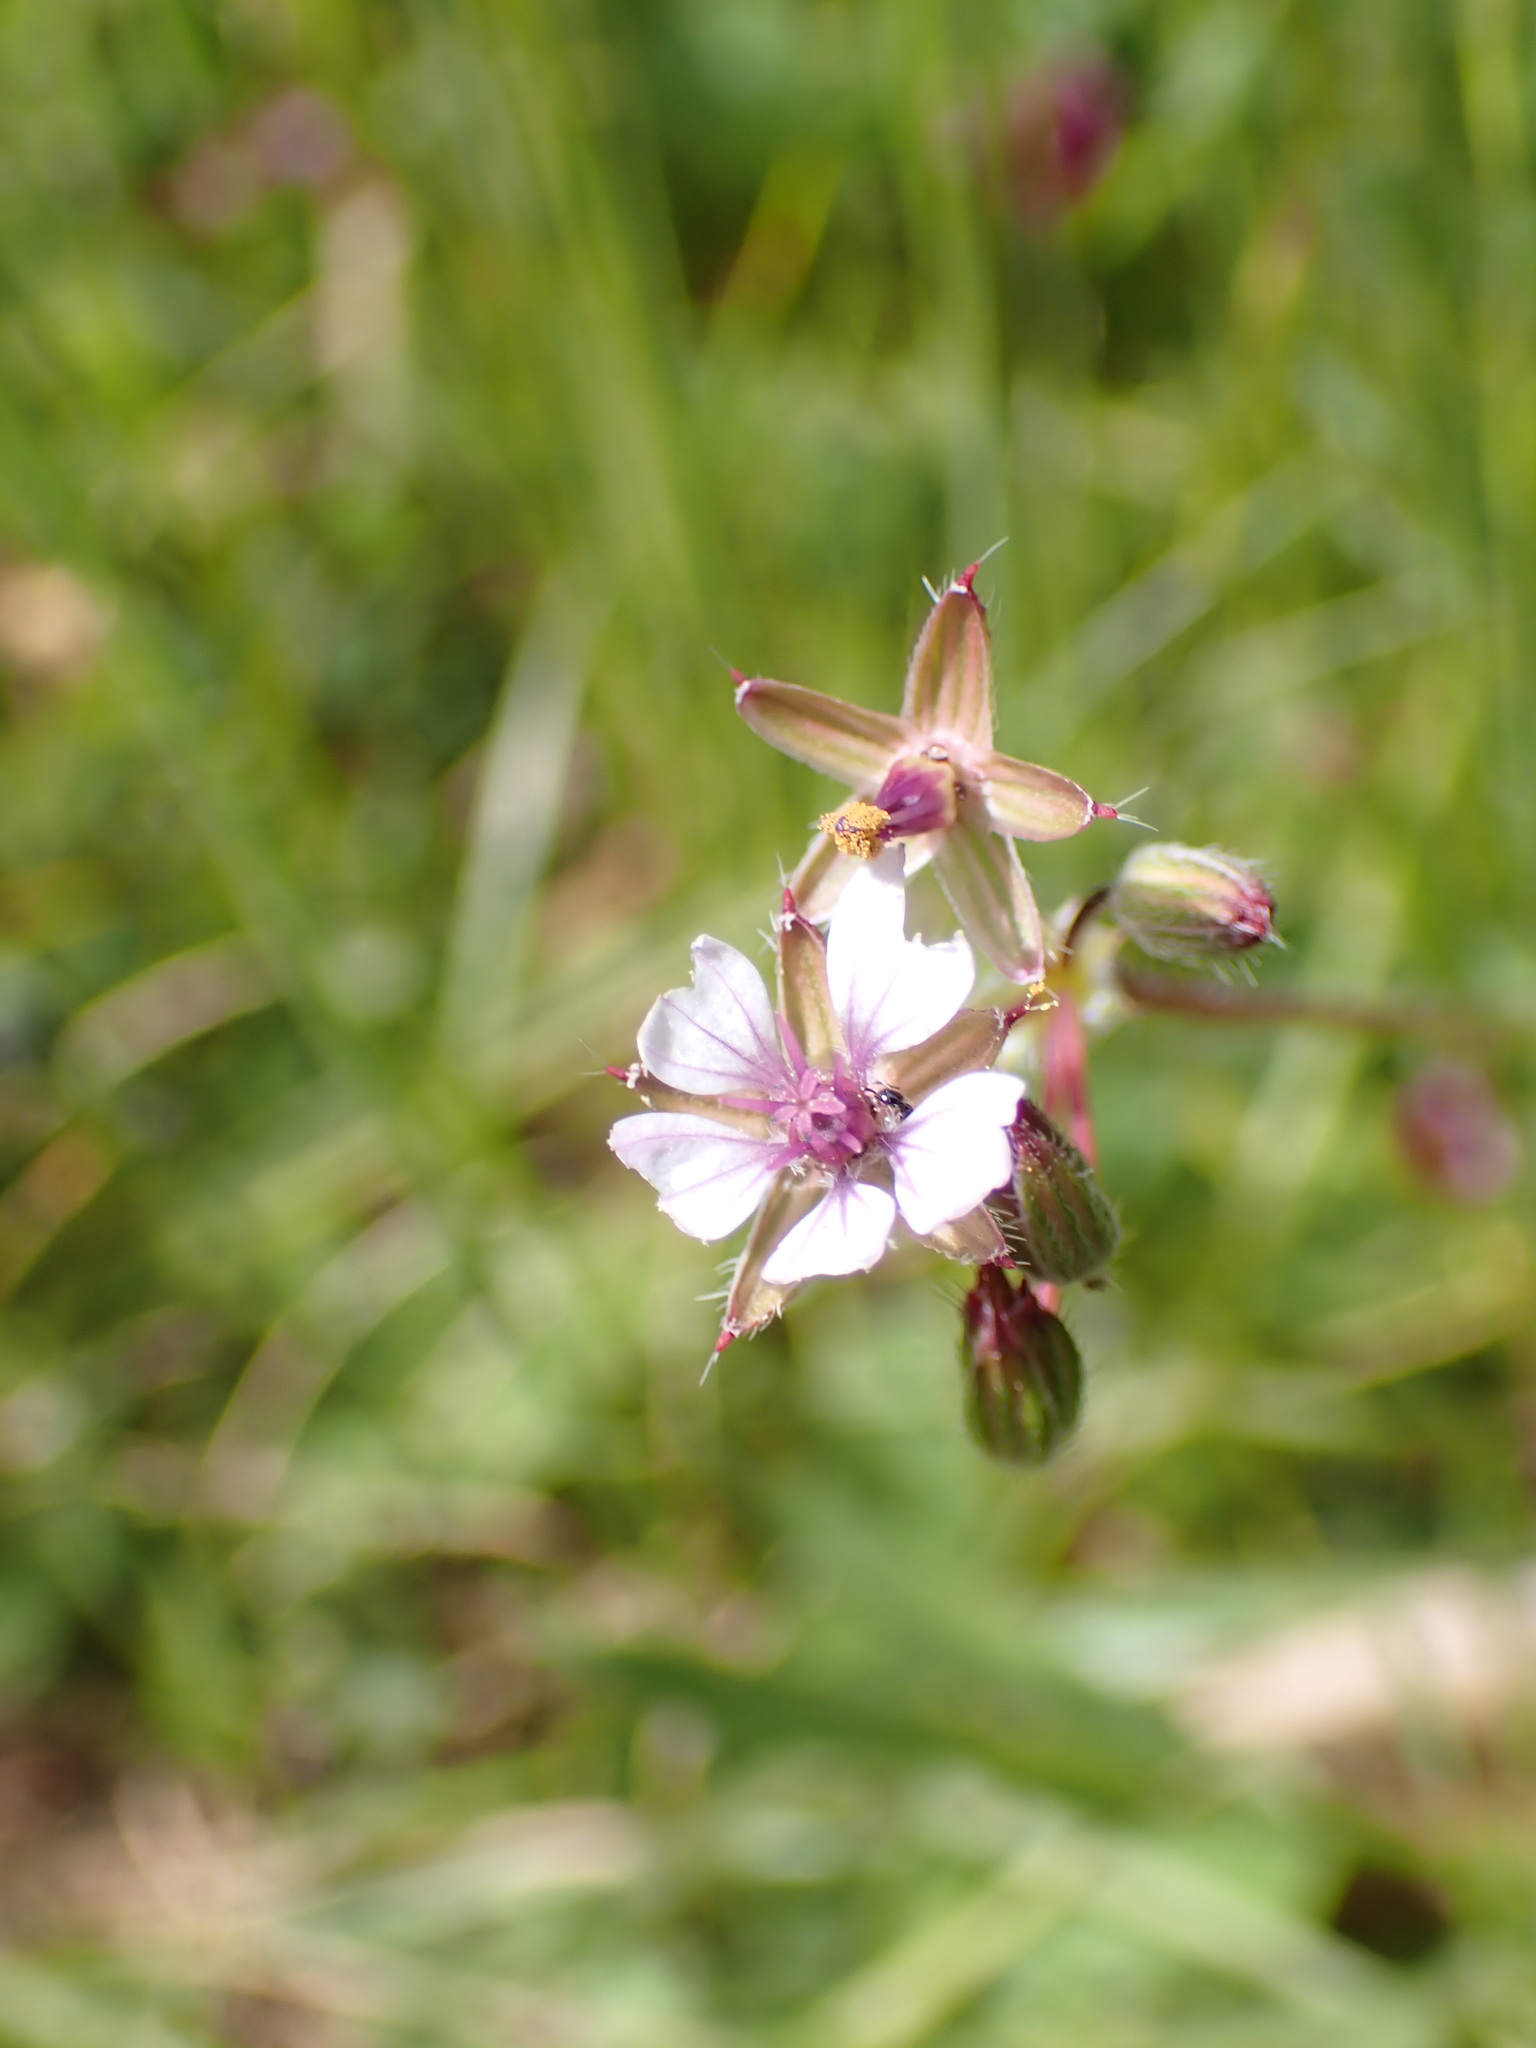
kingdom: Plantae
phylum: Tracheophyta
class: Magnoliopsida
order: Geraniales
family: Geraniaceae
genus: Erodium
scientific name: Erodium cicutarium
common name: Common stork's-bill
